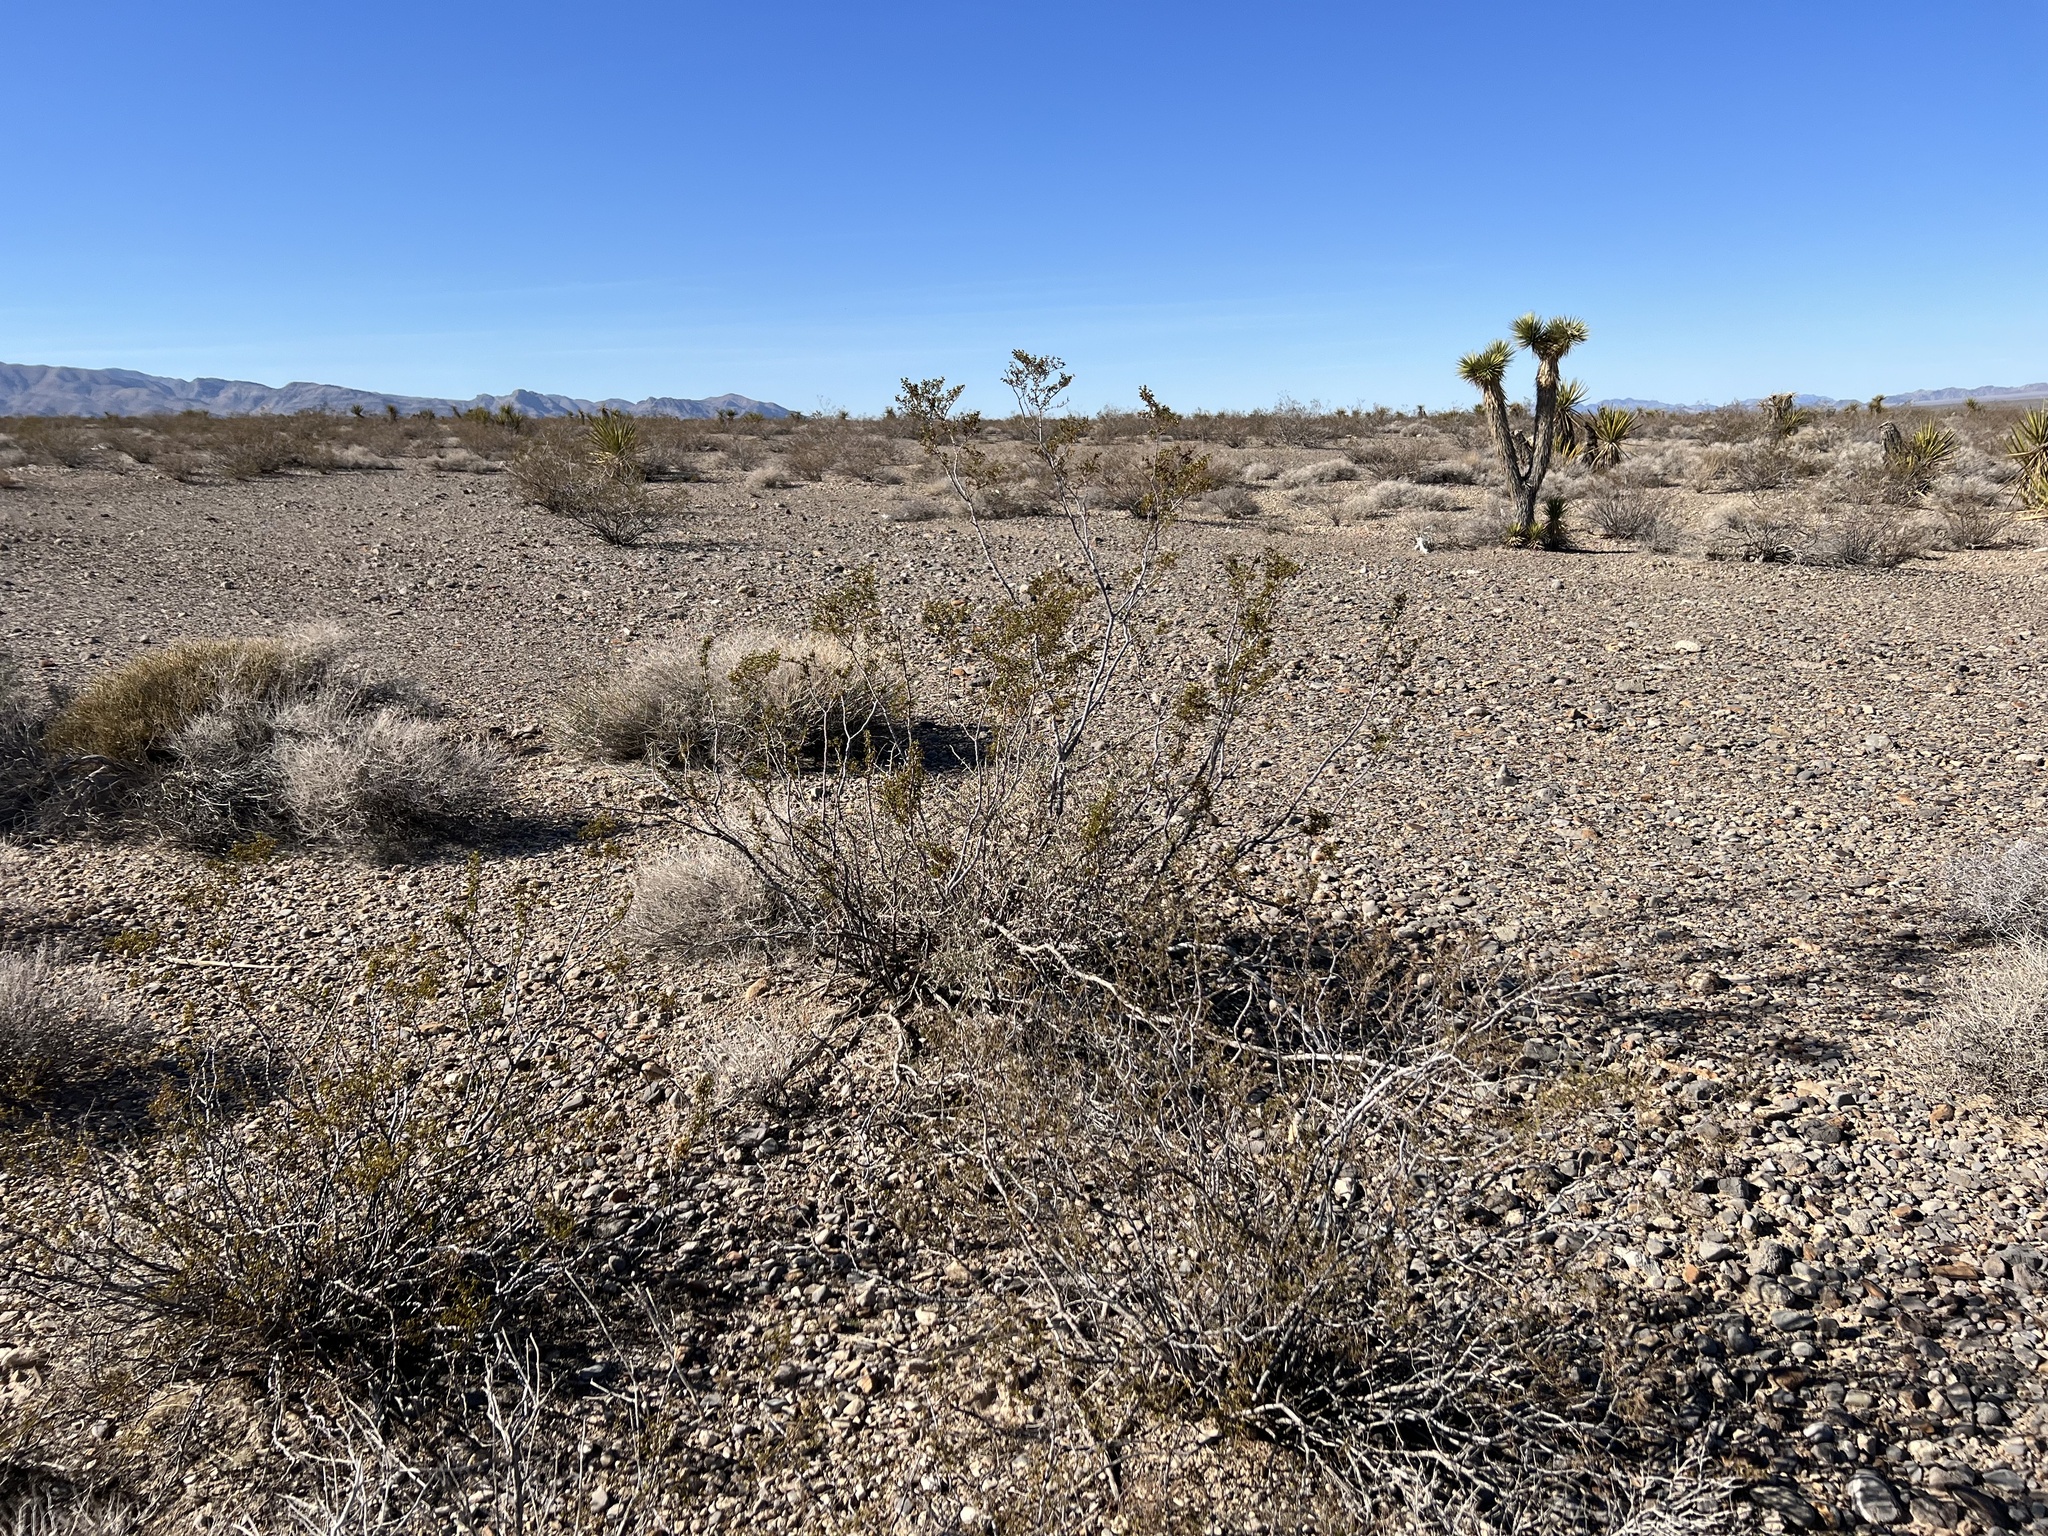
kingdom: Plantae
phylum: Tracheophyta
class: Magnoliopsida
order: Zygophyllales
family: Zygophyllaceae
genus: Larrea
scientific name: Larrea tridentata
